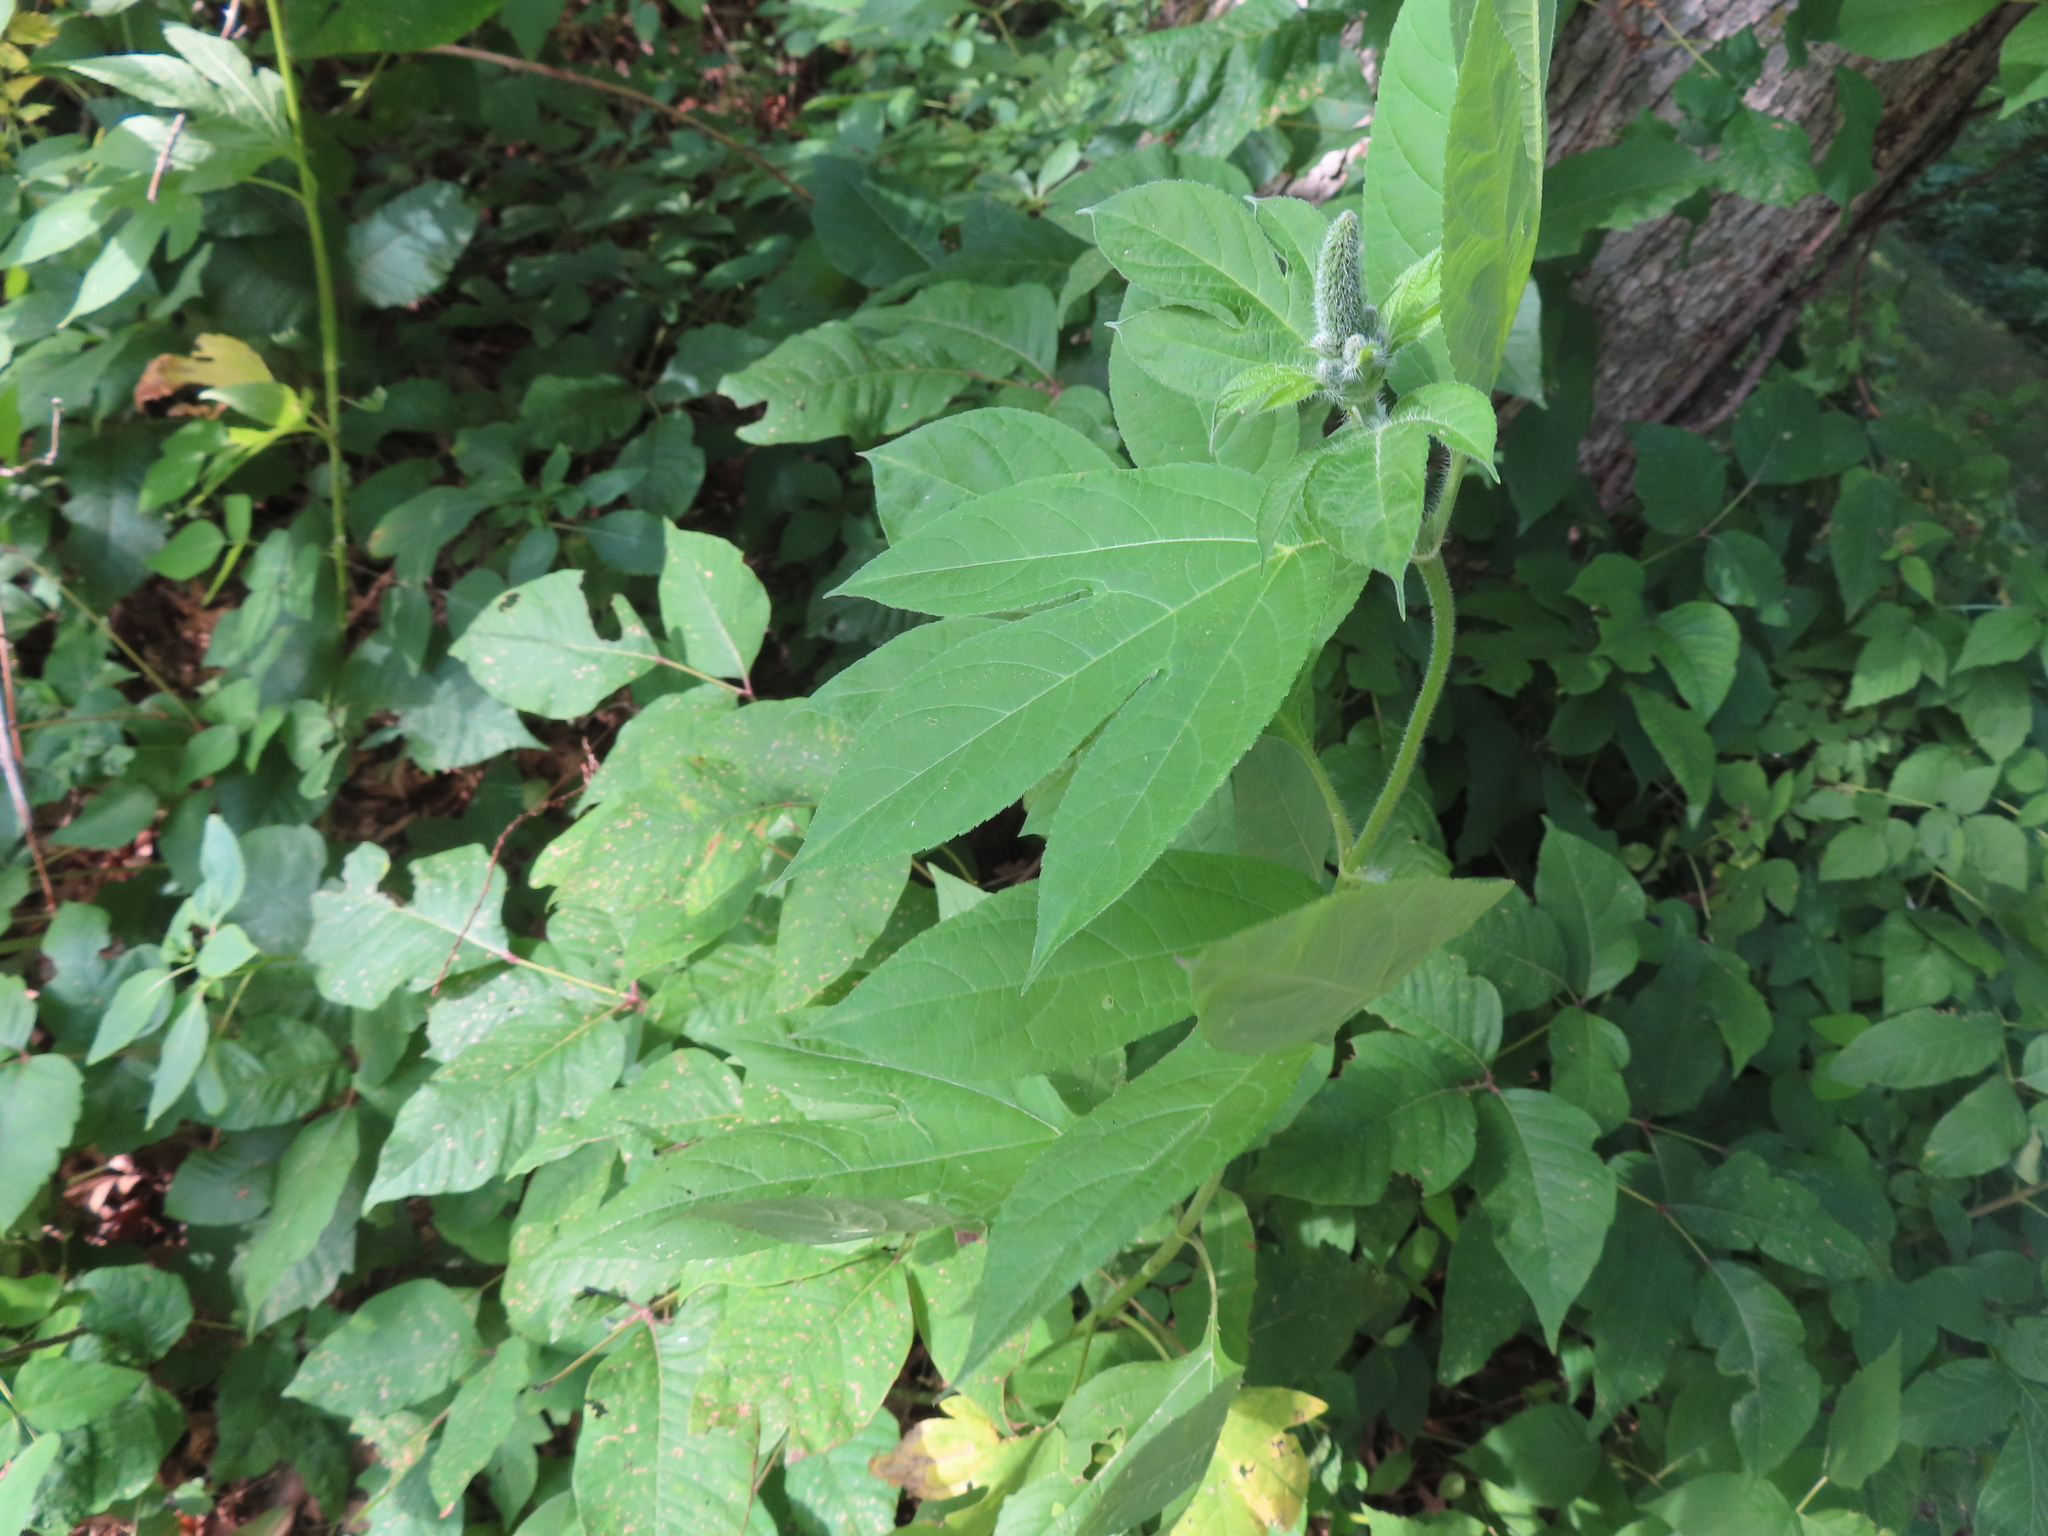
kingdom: Plantae
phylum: Tracheophyta
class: Magnoliopsida
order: Asterales
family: Asteraceae
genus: Ambrosia
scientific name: Ambrosia trifida
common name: Giant ragweed
